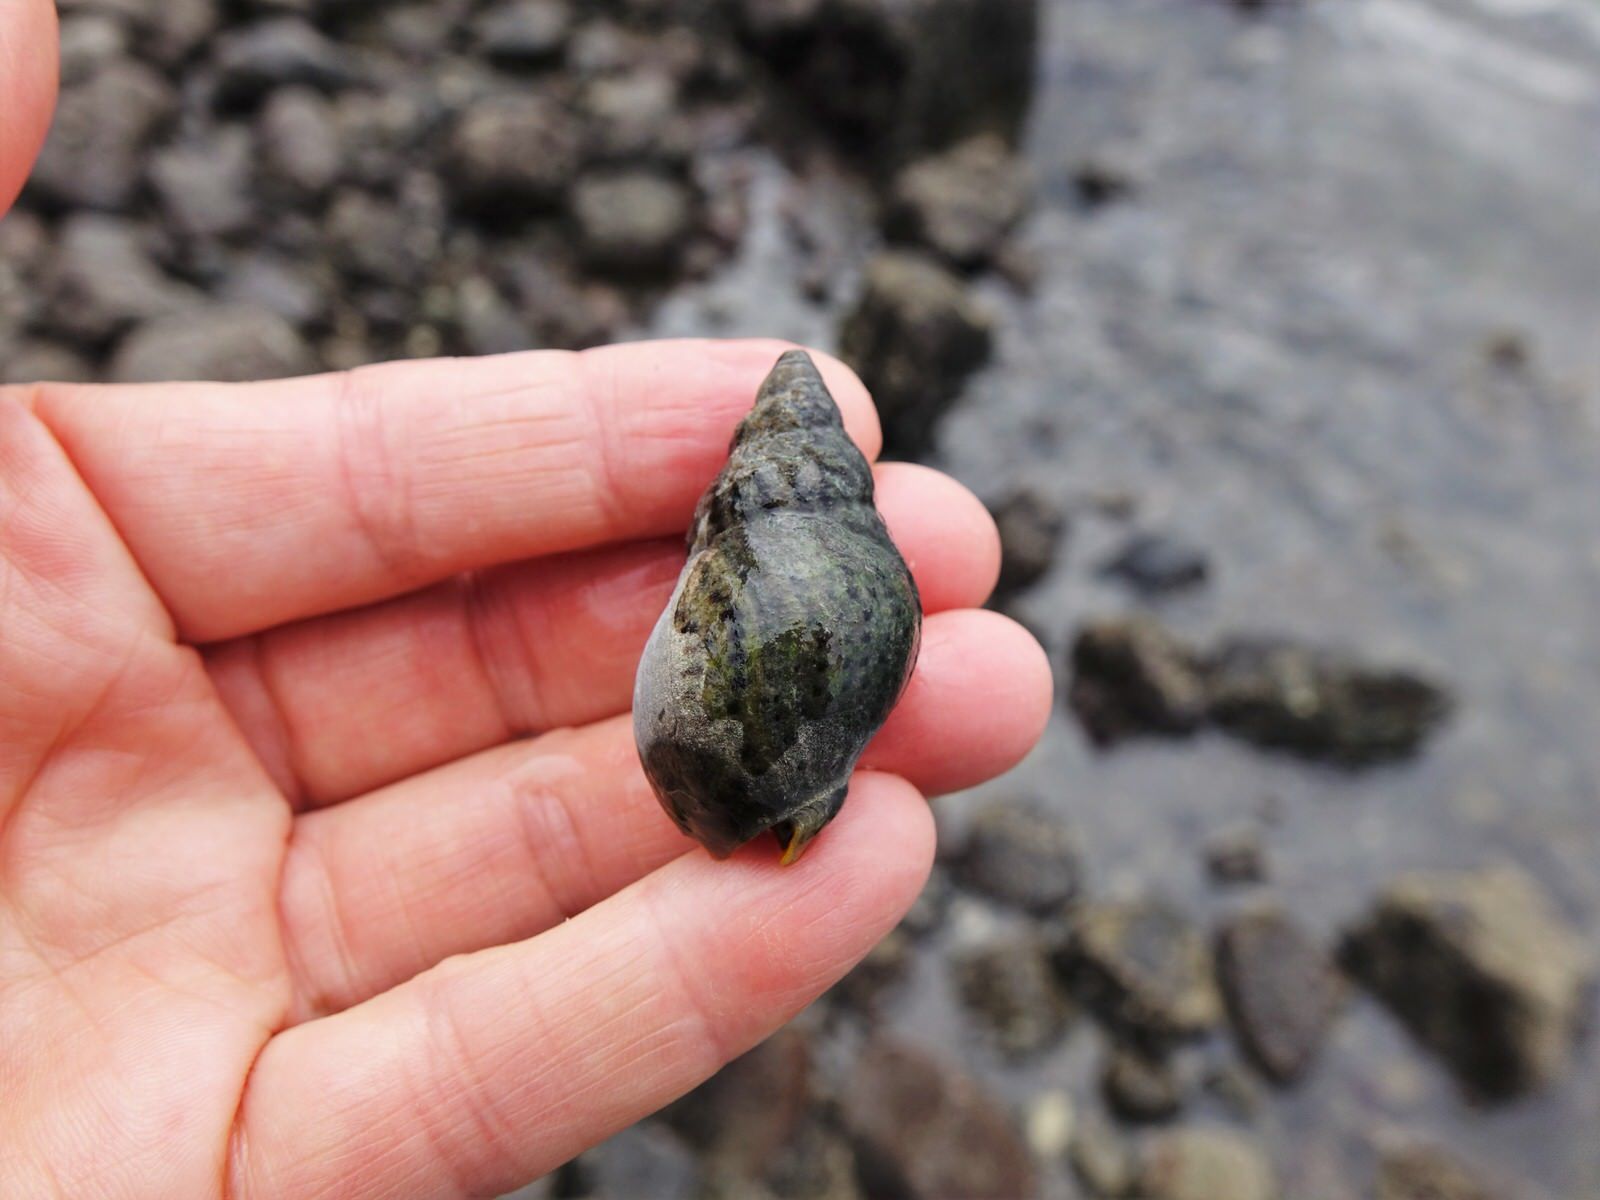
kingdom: Animalia
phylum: Mollusca
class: Gastropoda
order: Neogastropoda
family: Cominellidae
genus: Cominella
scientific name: Cominella maculosa
